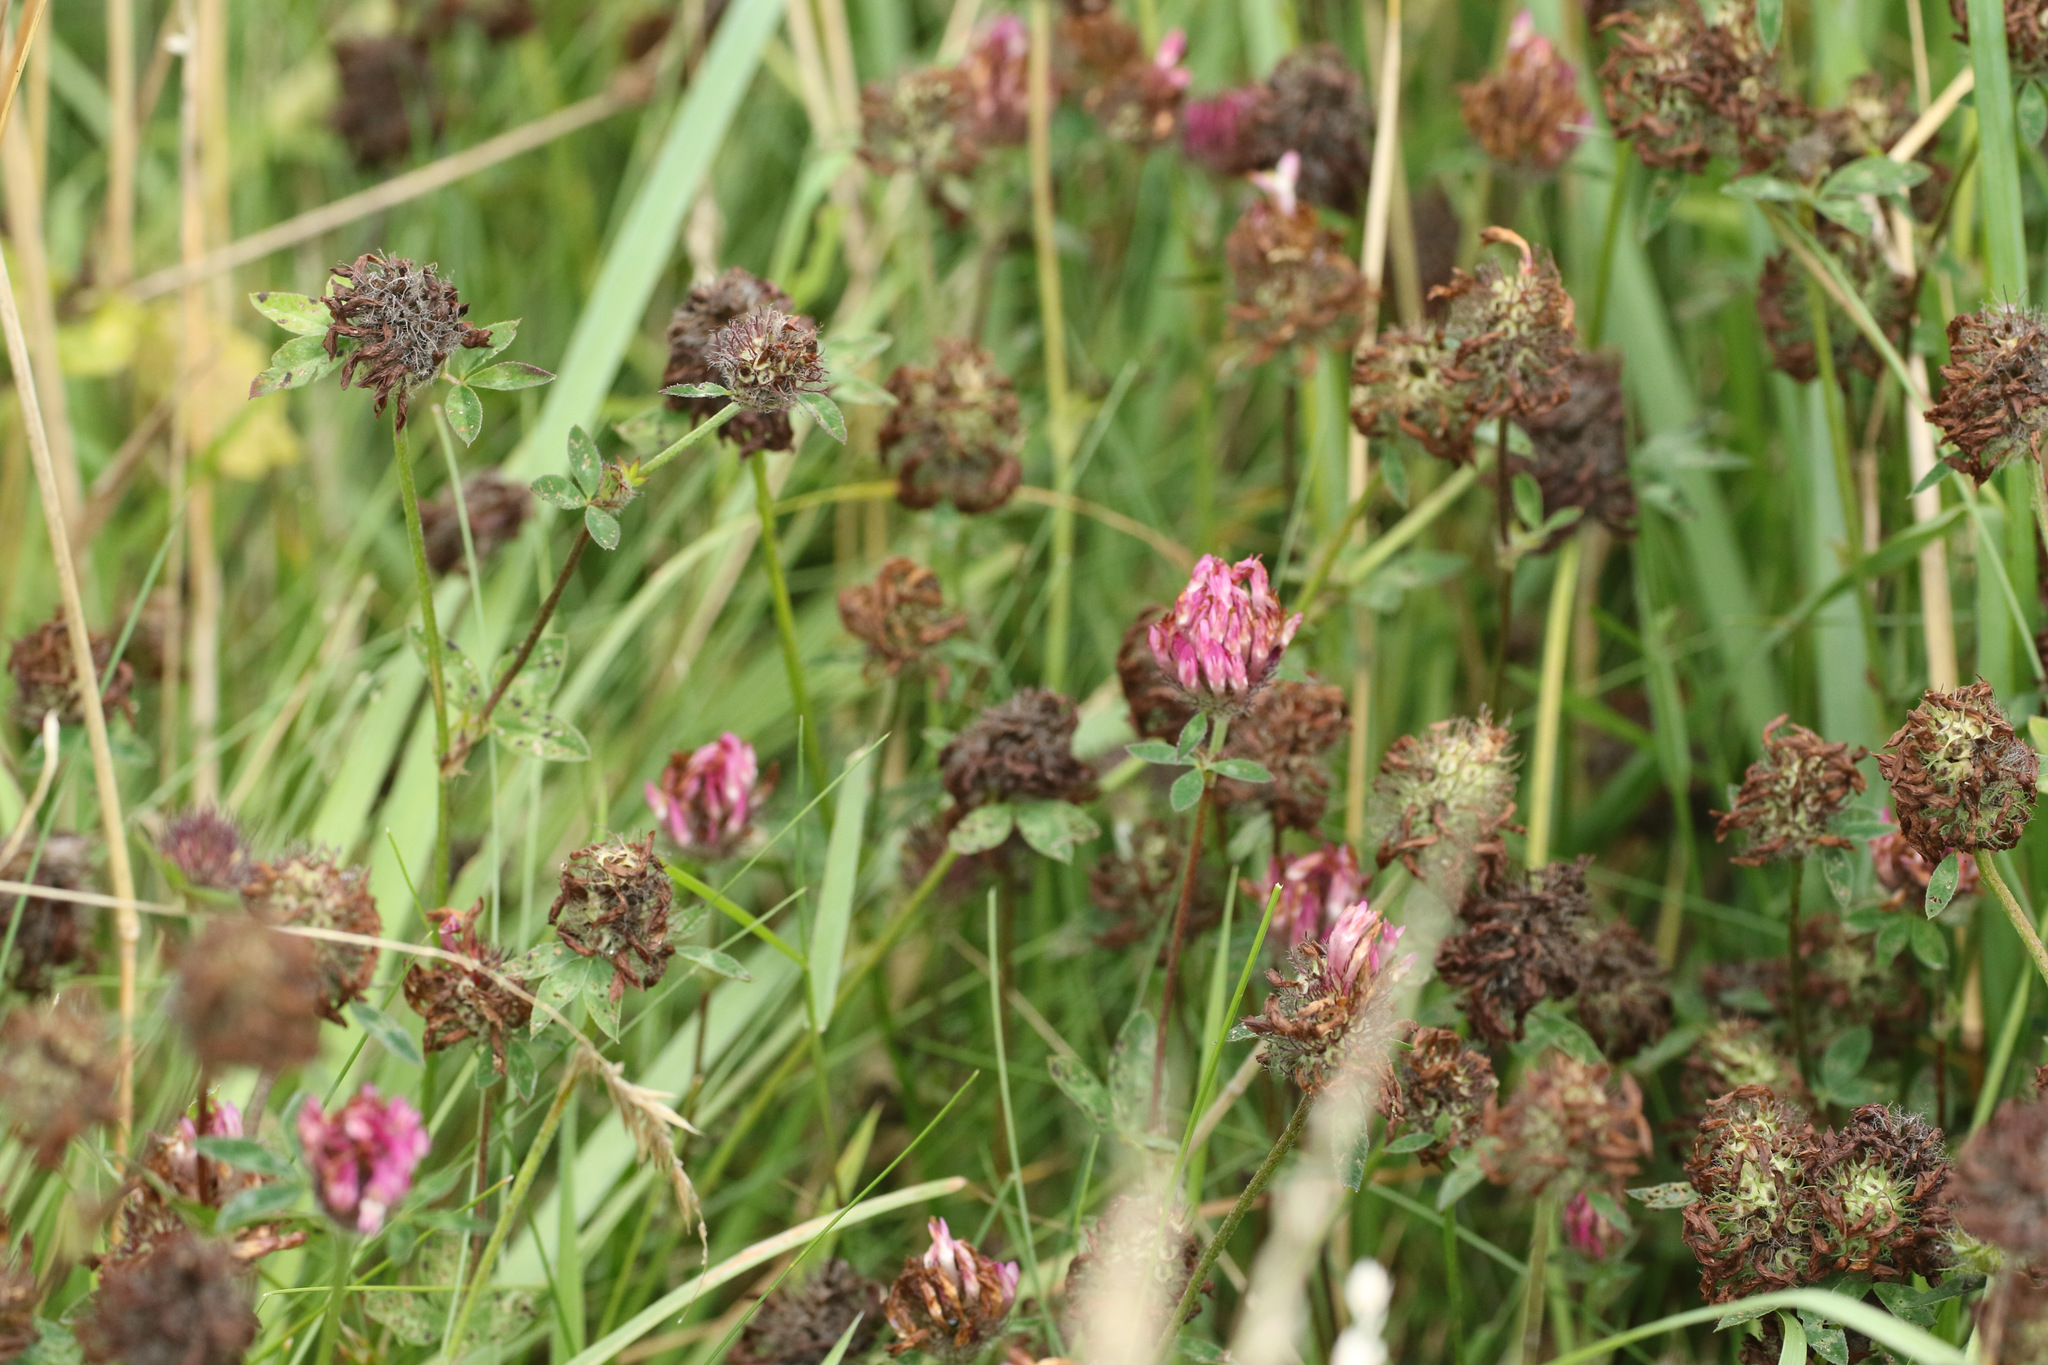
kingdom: Plantae
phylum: Tracheophyta
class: Magnoliopsida
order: Fabales
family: Fabaceae
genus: Trifolium
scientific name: Trifolium pratense
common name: Red clover
